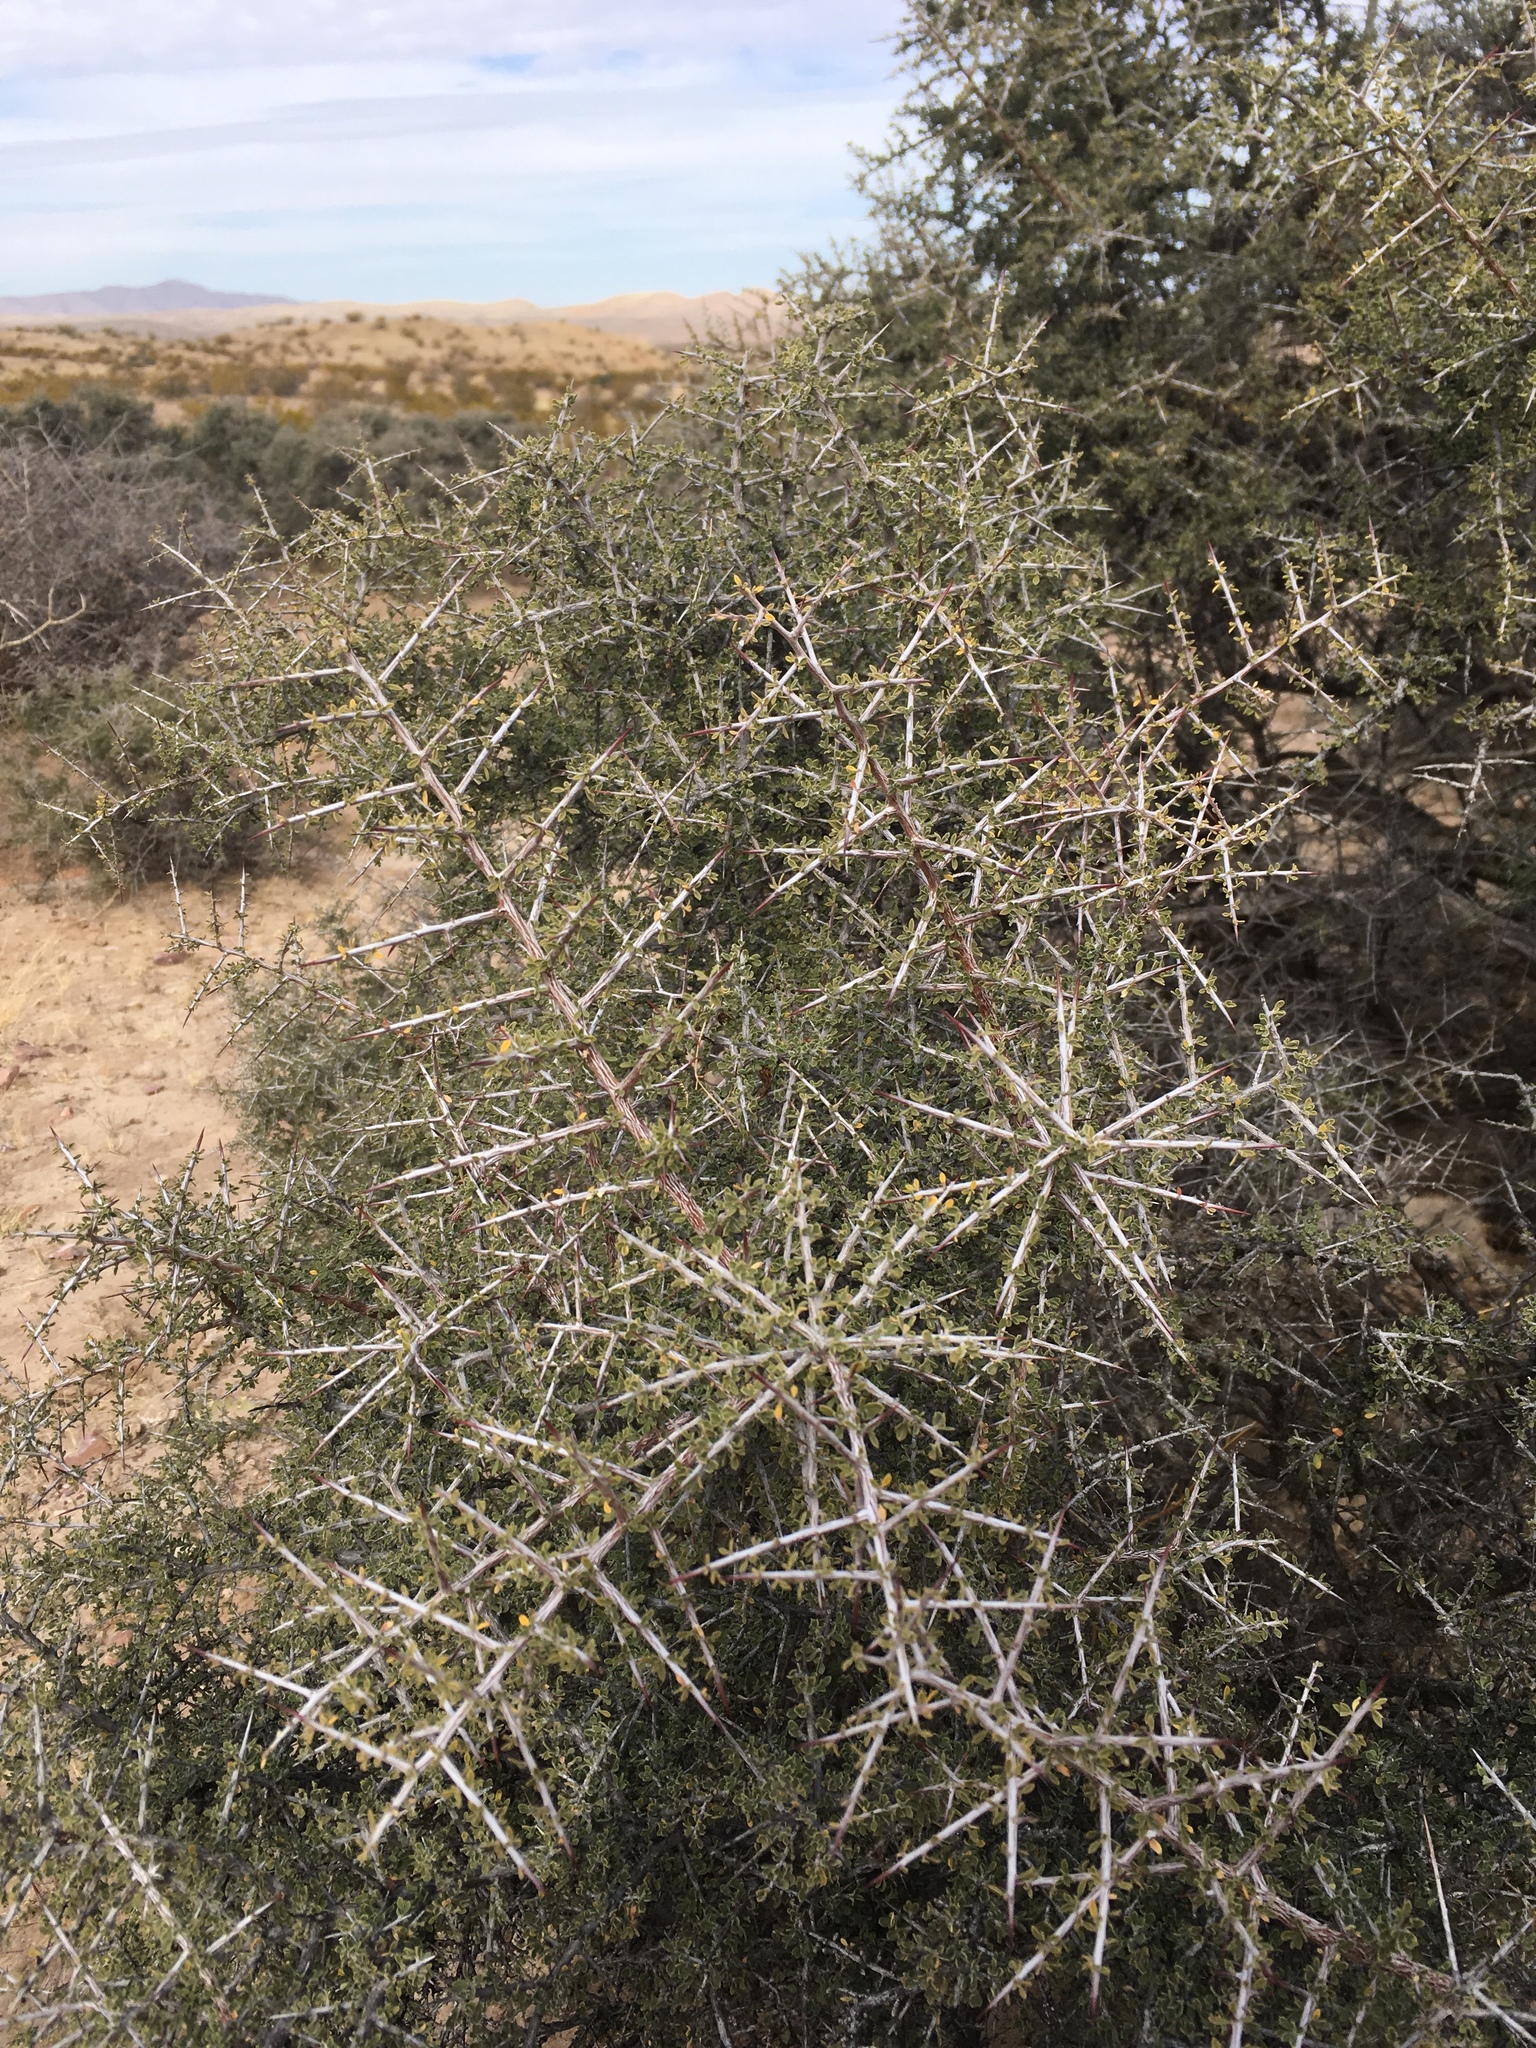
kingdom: Plantae
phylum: Tracheophyta
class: Magnoliopsida
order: Rosales
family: Rhamnaceae
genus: Condalia
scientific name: Condalia warnockii
